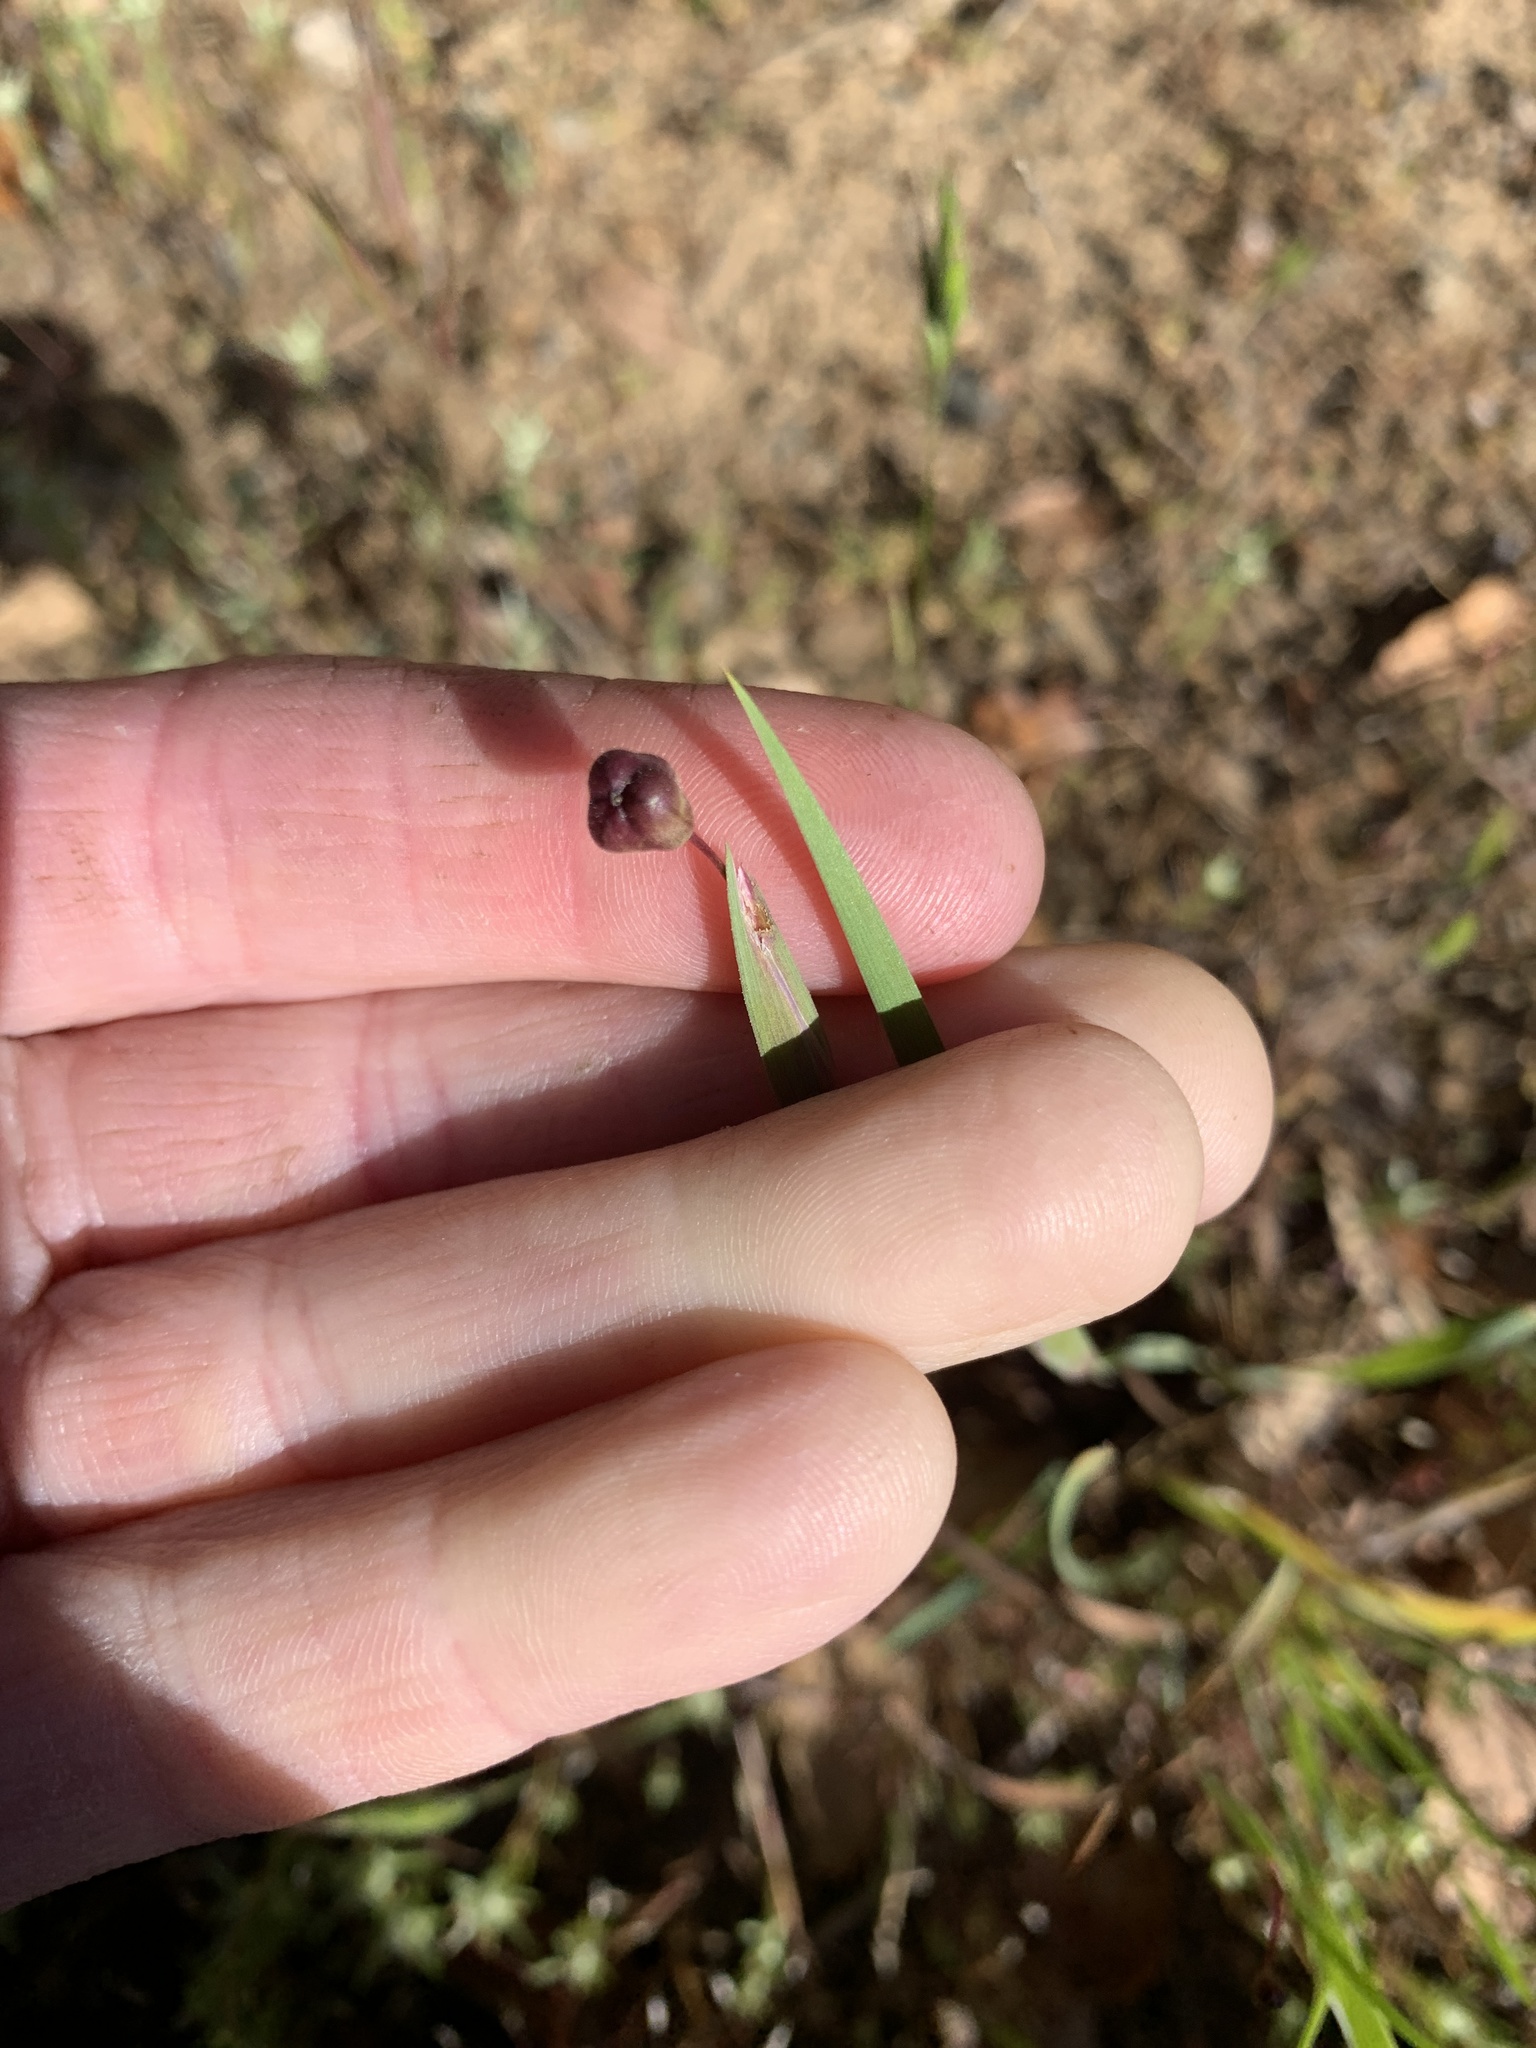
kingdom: Plantae
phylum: Tracheophyta
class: Liliopsida
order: Asparagales
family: Iridaceae
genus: Sisyrinchium
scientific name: Sisyrinchium bellum
